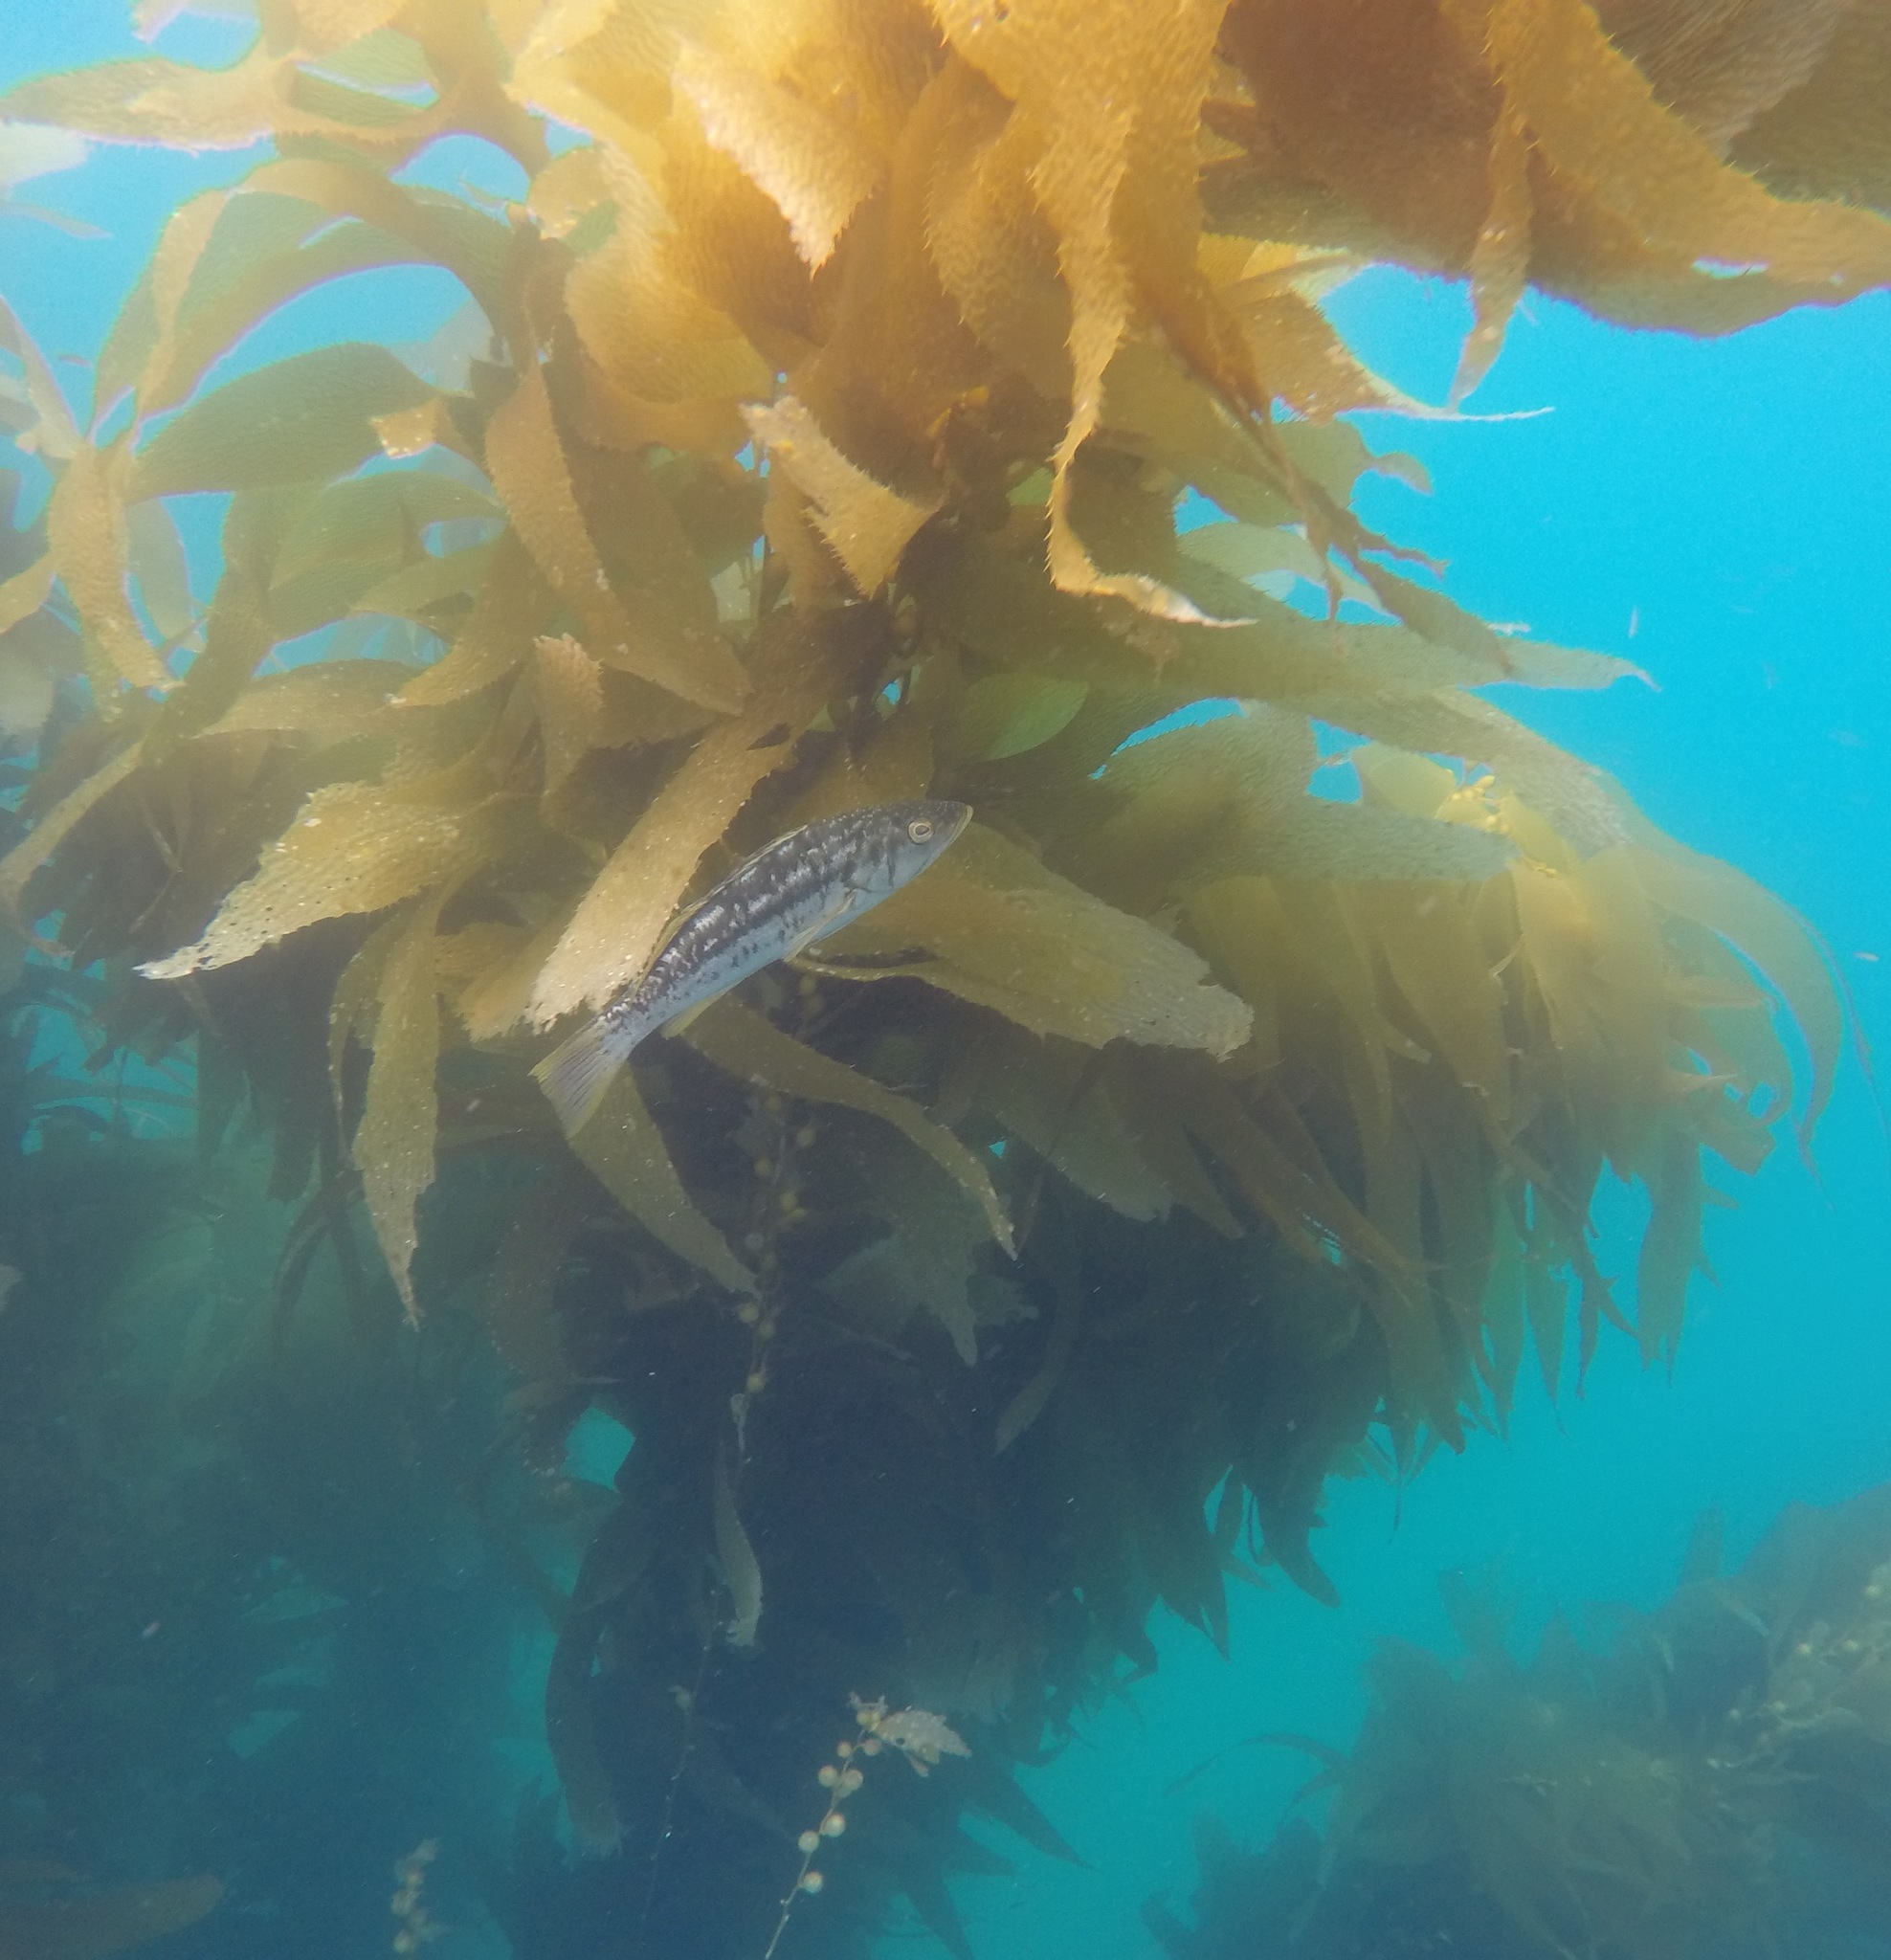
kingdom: Chromista
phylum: Ochrophyta
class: Phaeophyceae
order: Laminariales
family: Laminariaceae
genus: Macrocystis
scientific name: Macrocystis pyrifera
